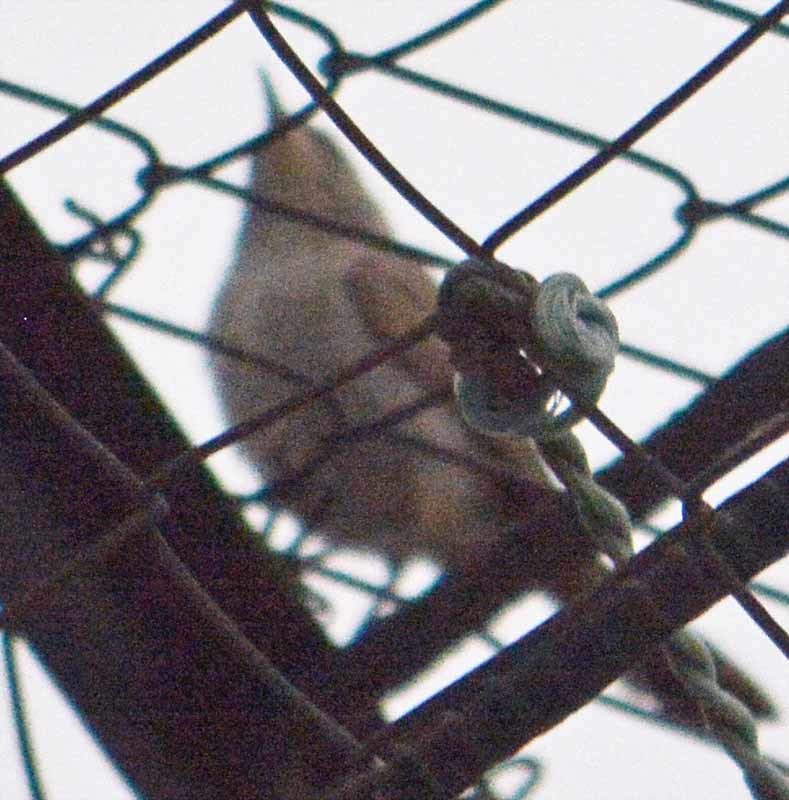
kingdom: Animalia
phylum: Chordata
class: Aves
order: Passeriformes
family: Troglodytidae
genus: Thryomanes
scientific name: Thryomanes bewickii
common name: Bewick's wren
